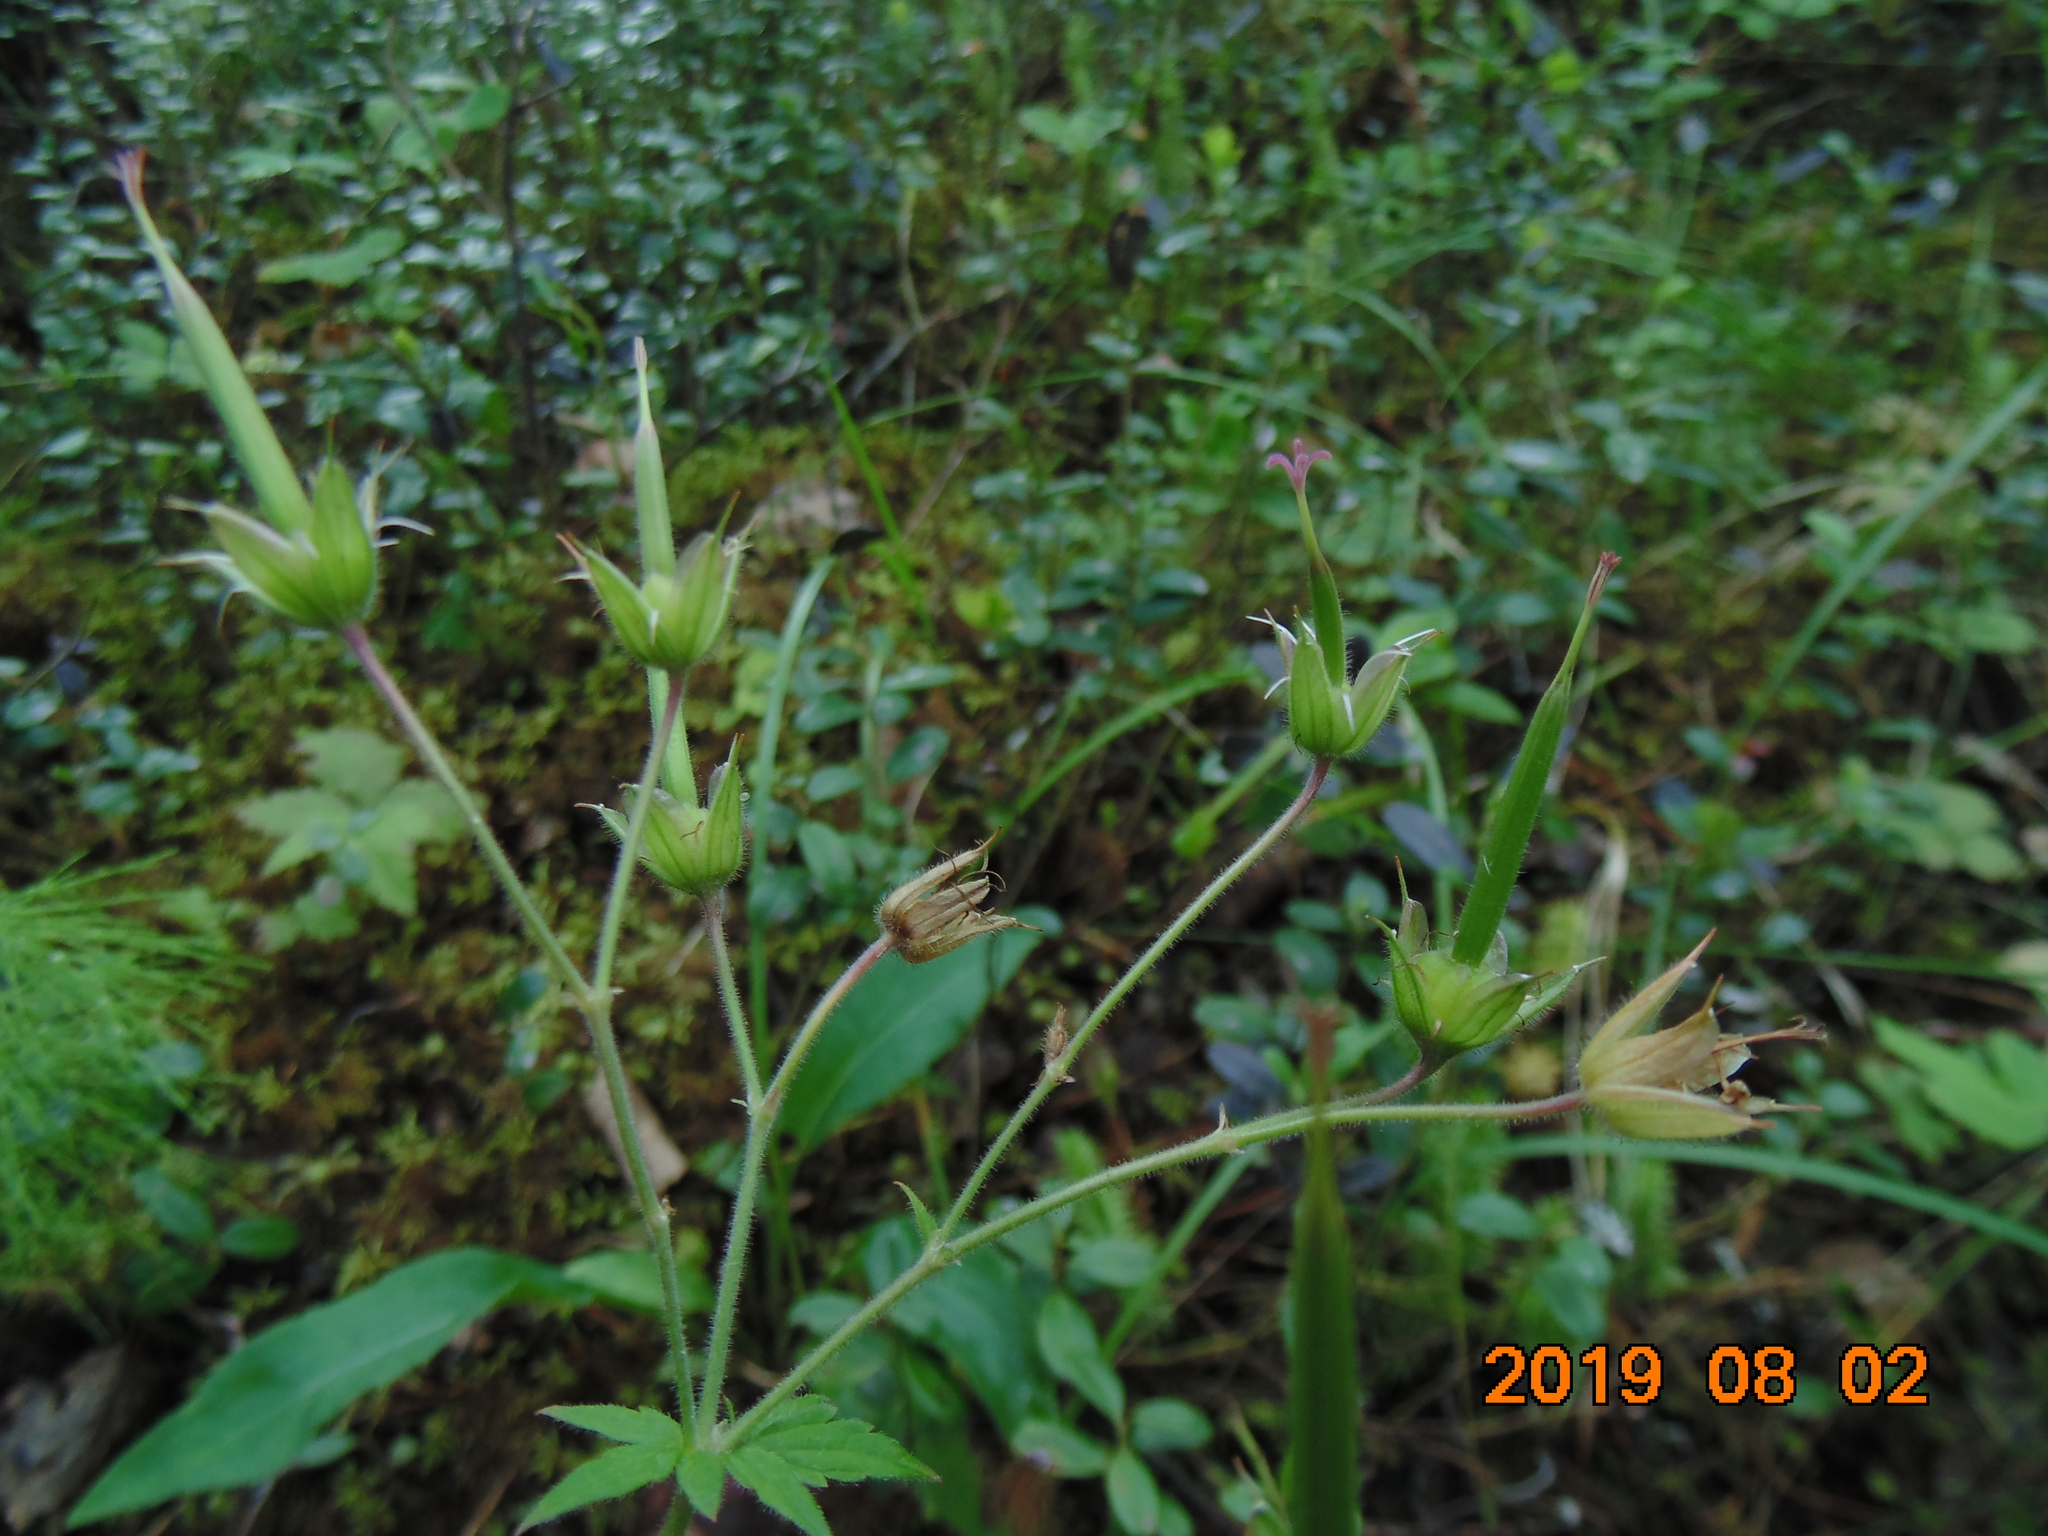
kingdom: Plantae
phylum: Tracheophyta
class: Magnoliopsida
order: Geraniales
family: Geraniaceae
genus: Geranium
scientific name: Geranium sylvaticum
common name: Wood crane's-bill
